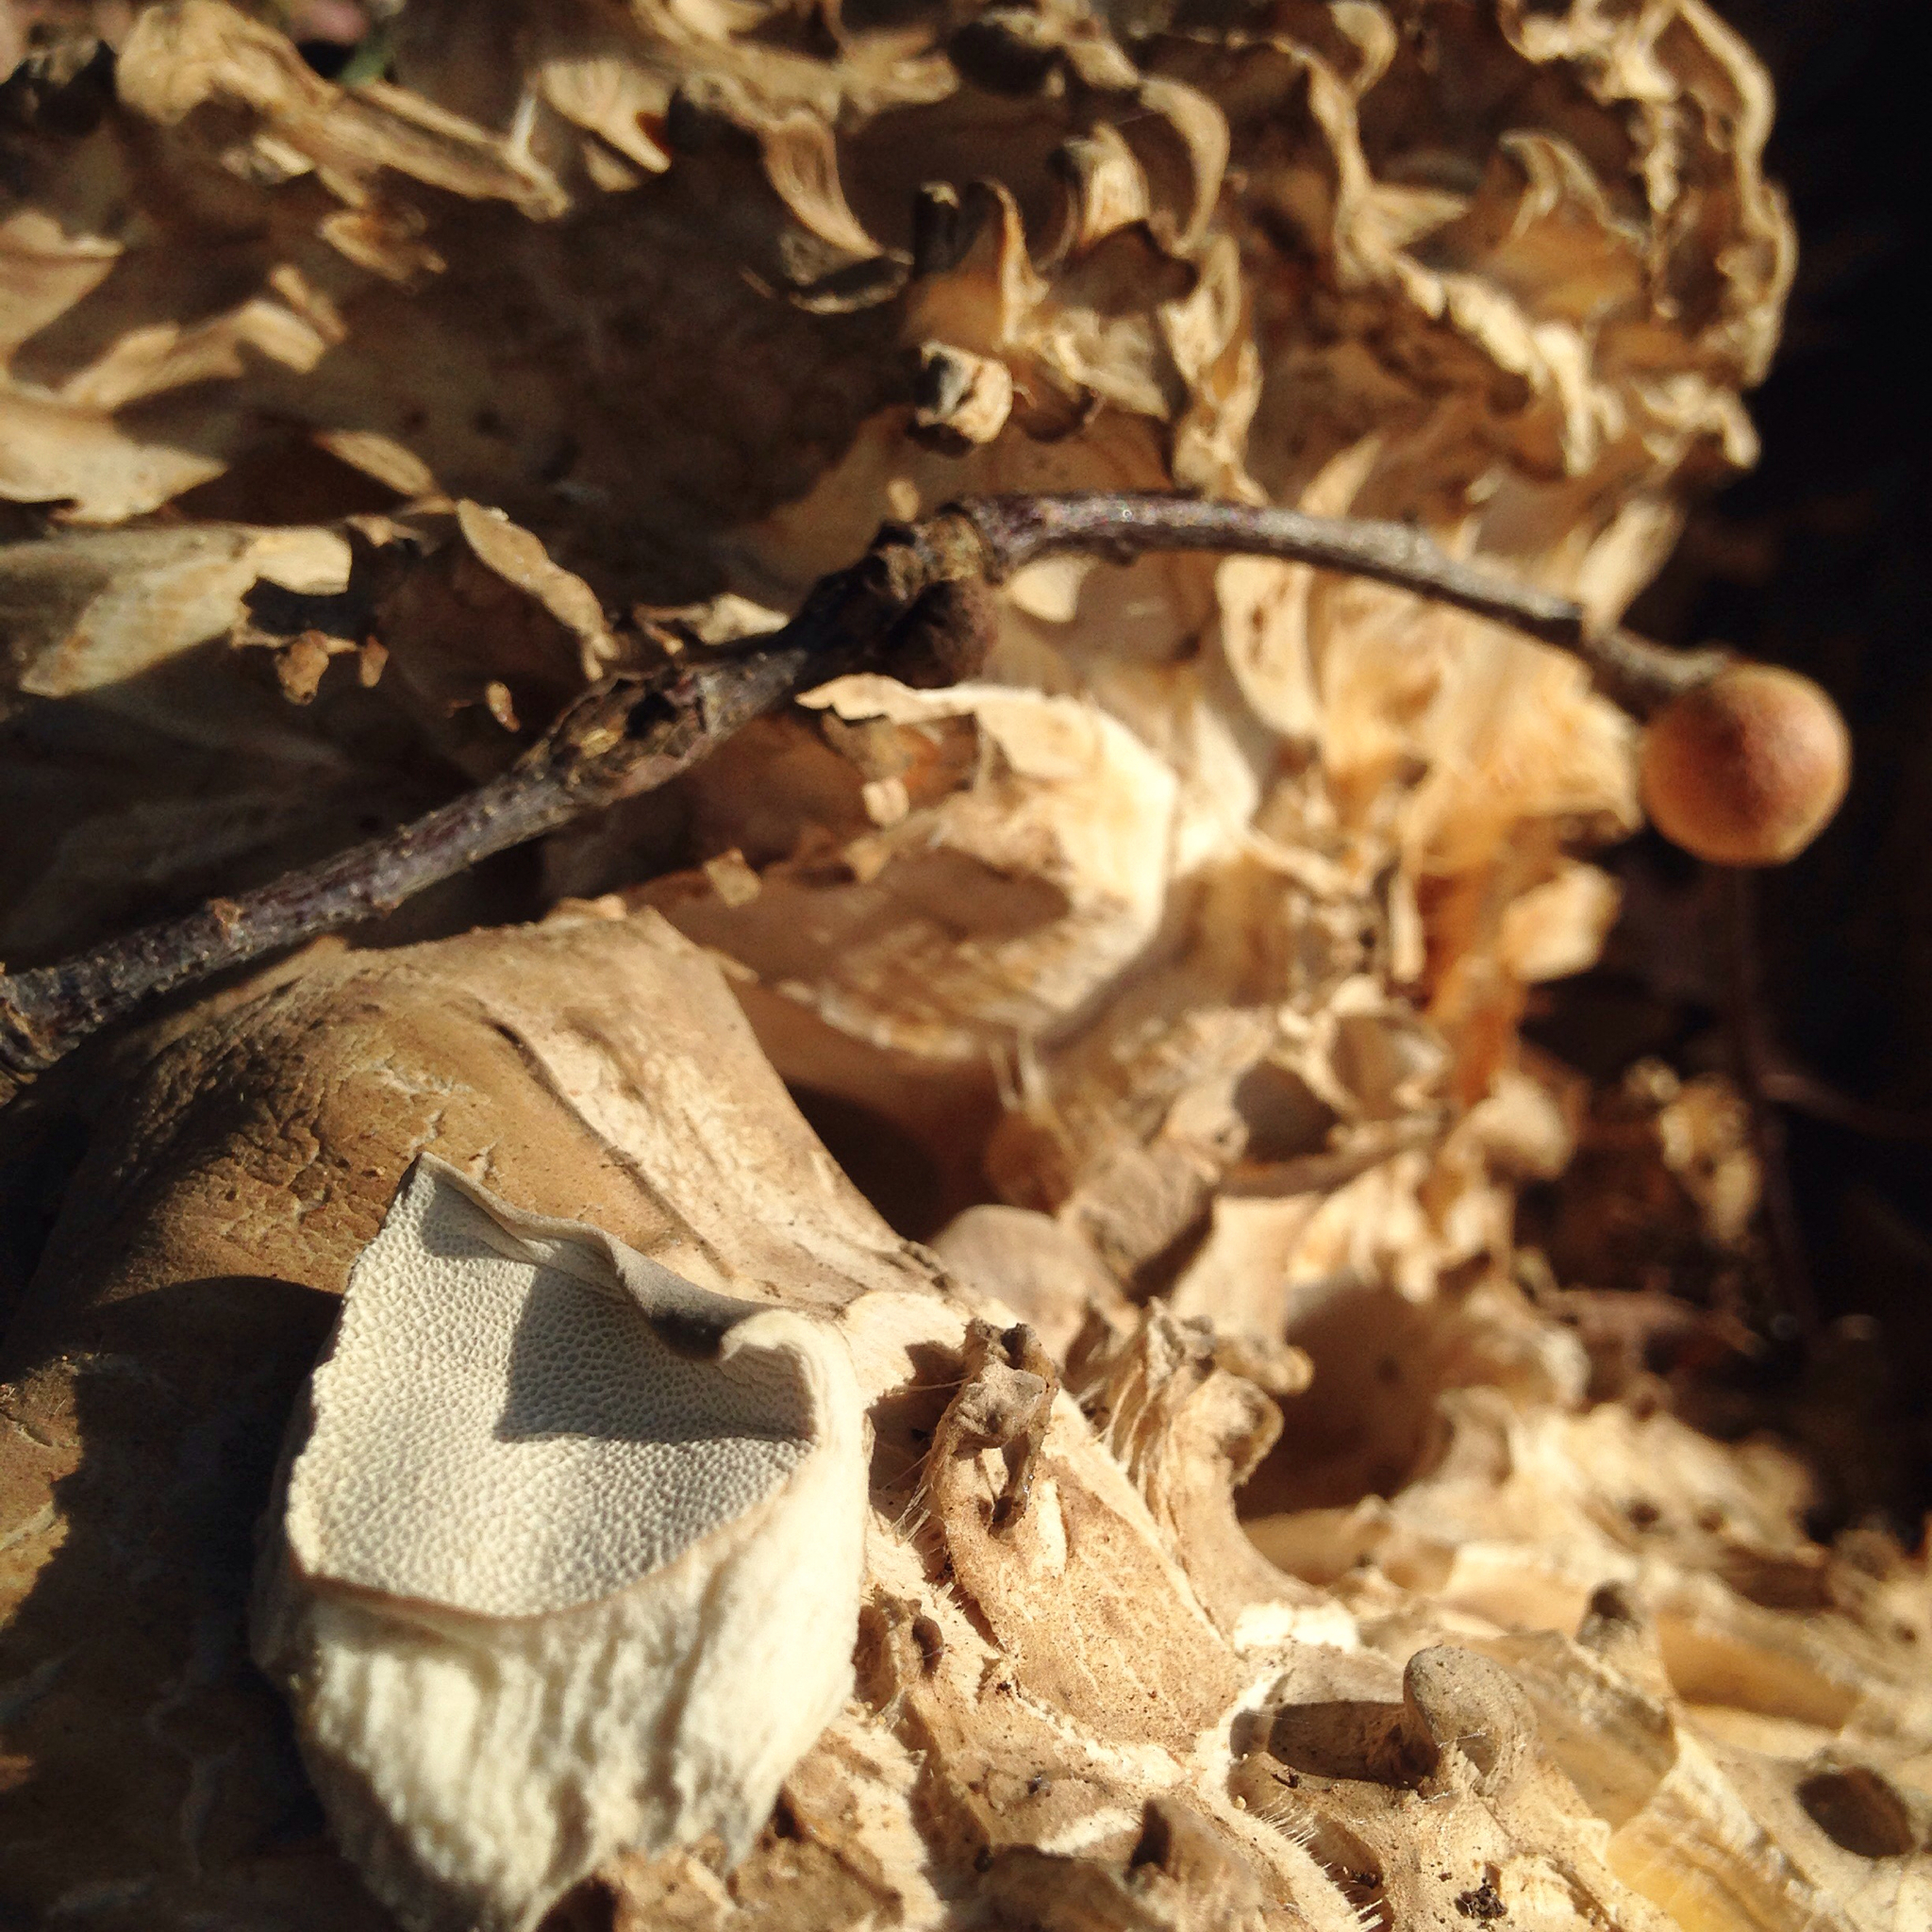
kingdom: Fungi
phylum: Basidiomycota
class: Agaricomycetes
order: Polyporales
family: Grifolaceae
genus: Grifola
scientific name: Grifola frondosa
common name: Hen of the woods
